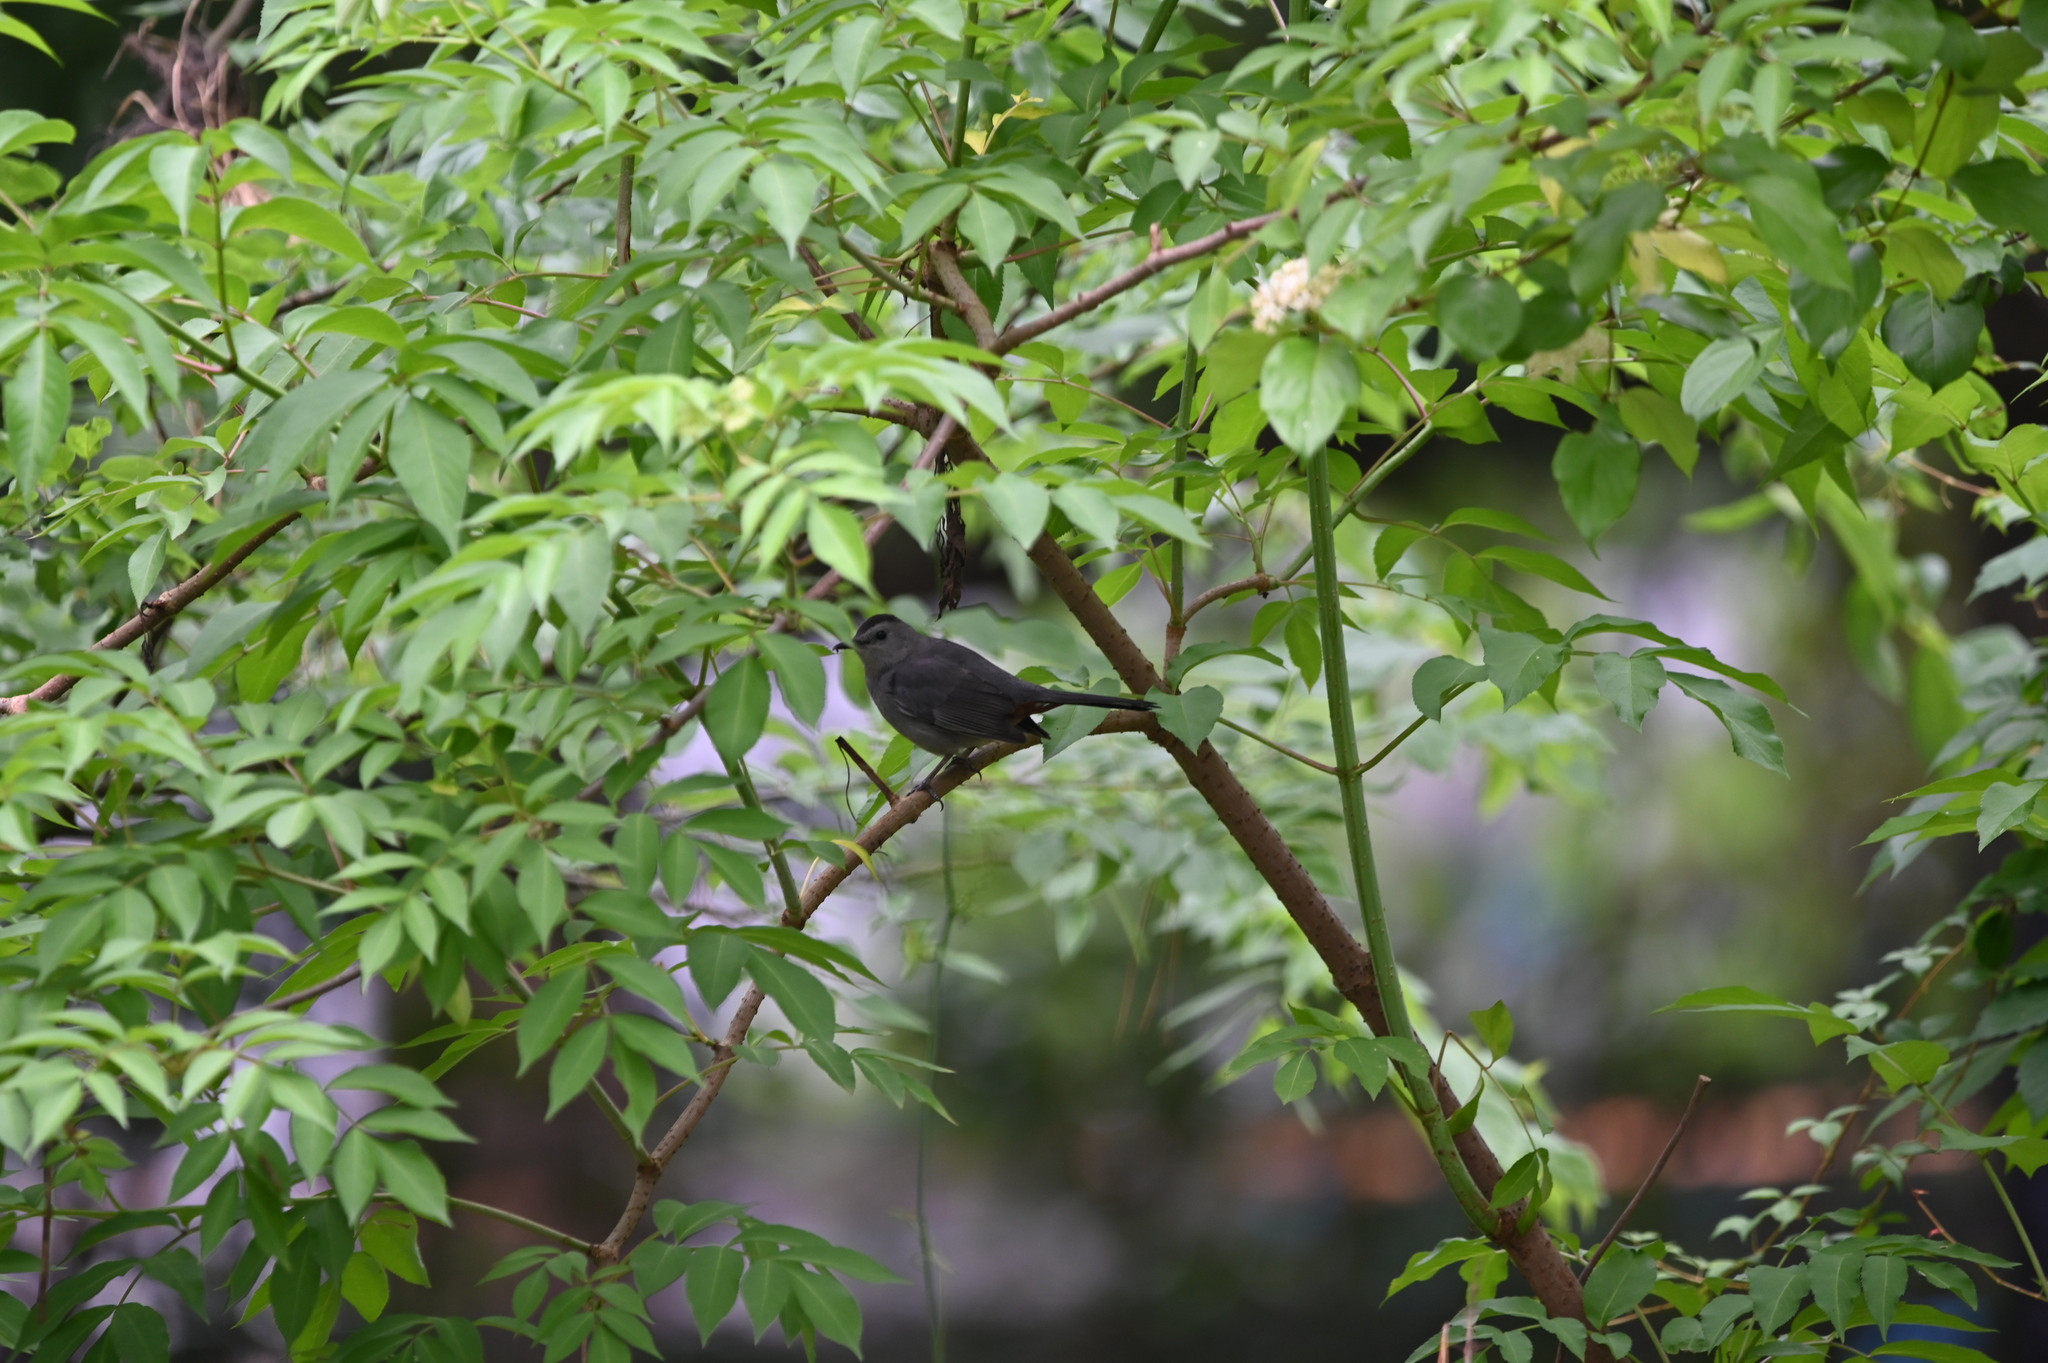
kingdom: Animalia
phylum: Chordata
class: Aves
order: Passeriformes
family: Mimidae
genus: Dumetella
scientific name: Dumetella carolinensis
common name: Gray catbird
